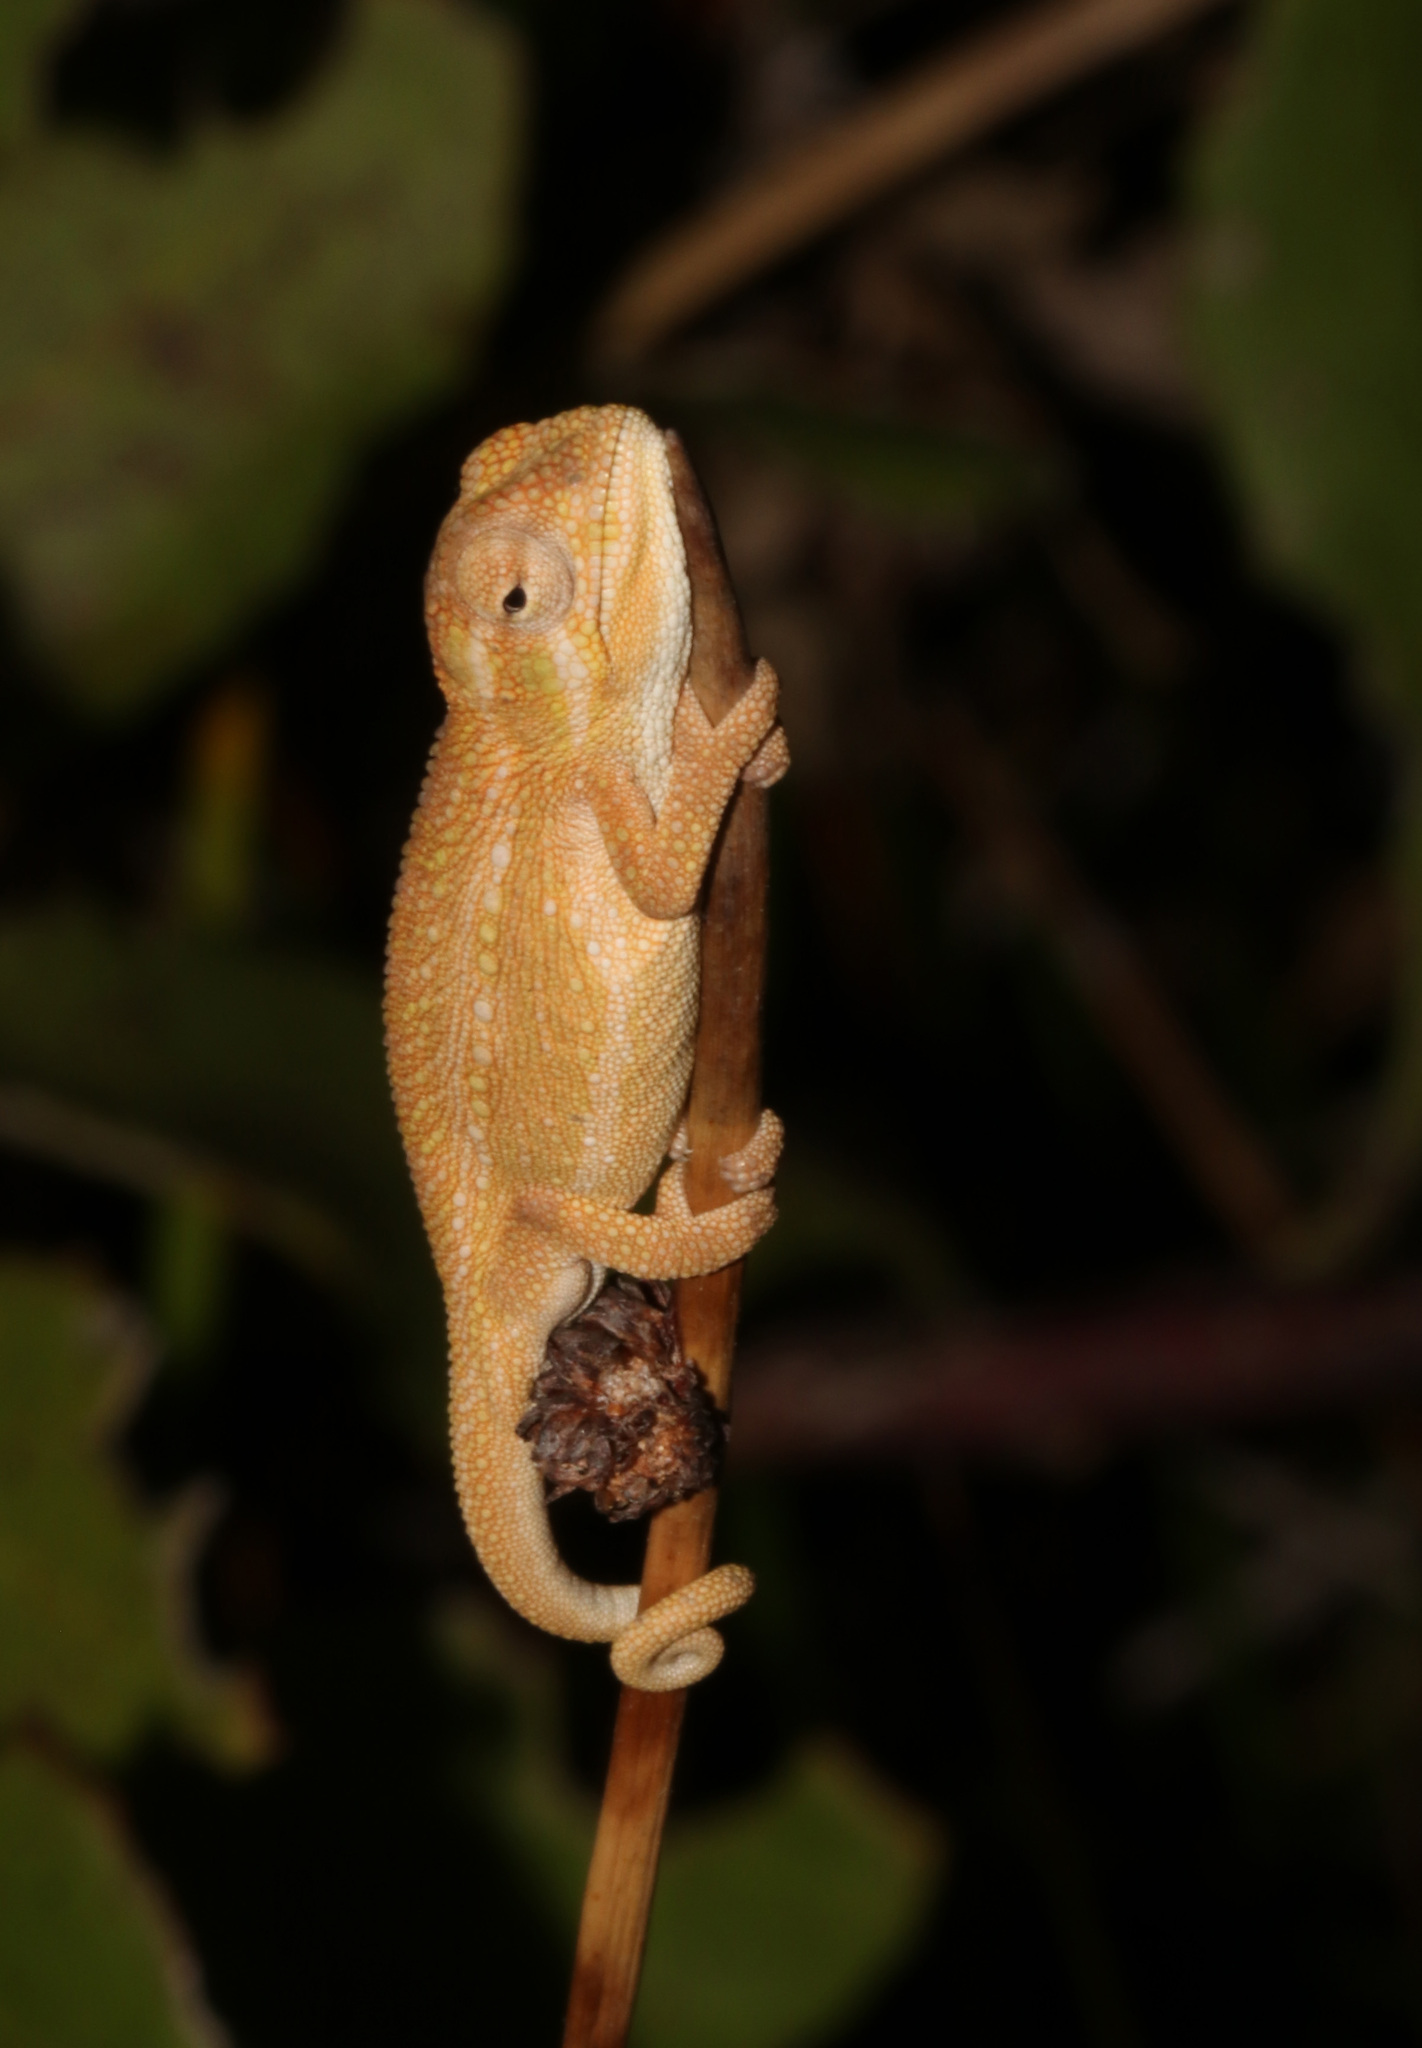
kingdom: Animalia
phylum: Chordata
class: Squamata
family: Chamaeleonidae
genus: Bradypodion
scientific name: Bradypodion pumilum
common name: Cape dwarf chameleon
